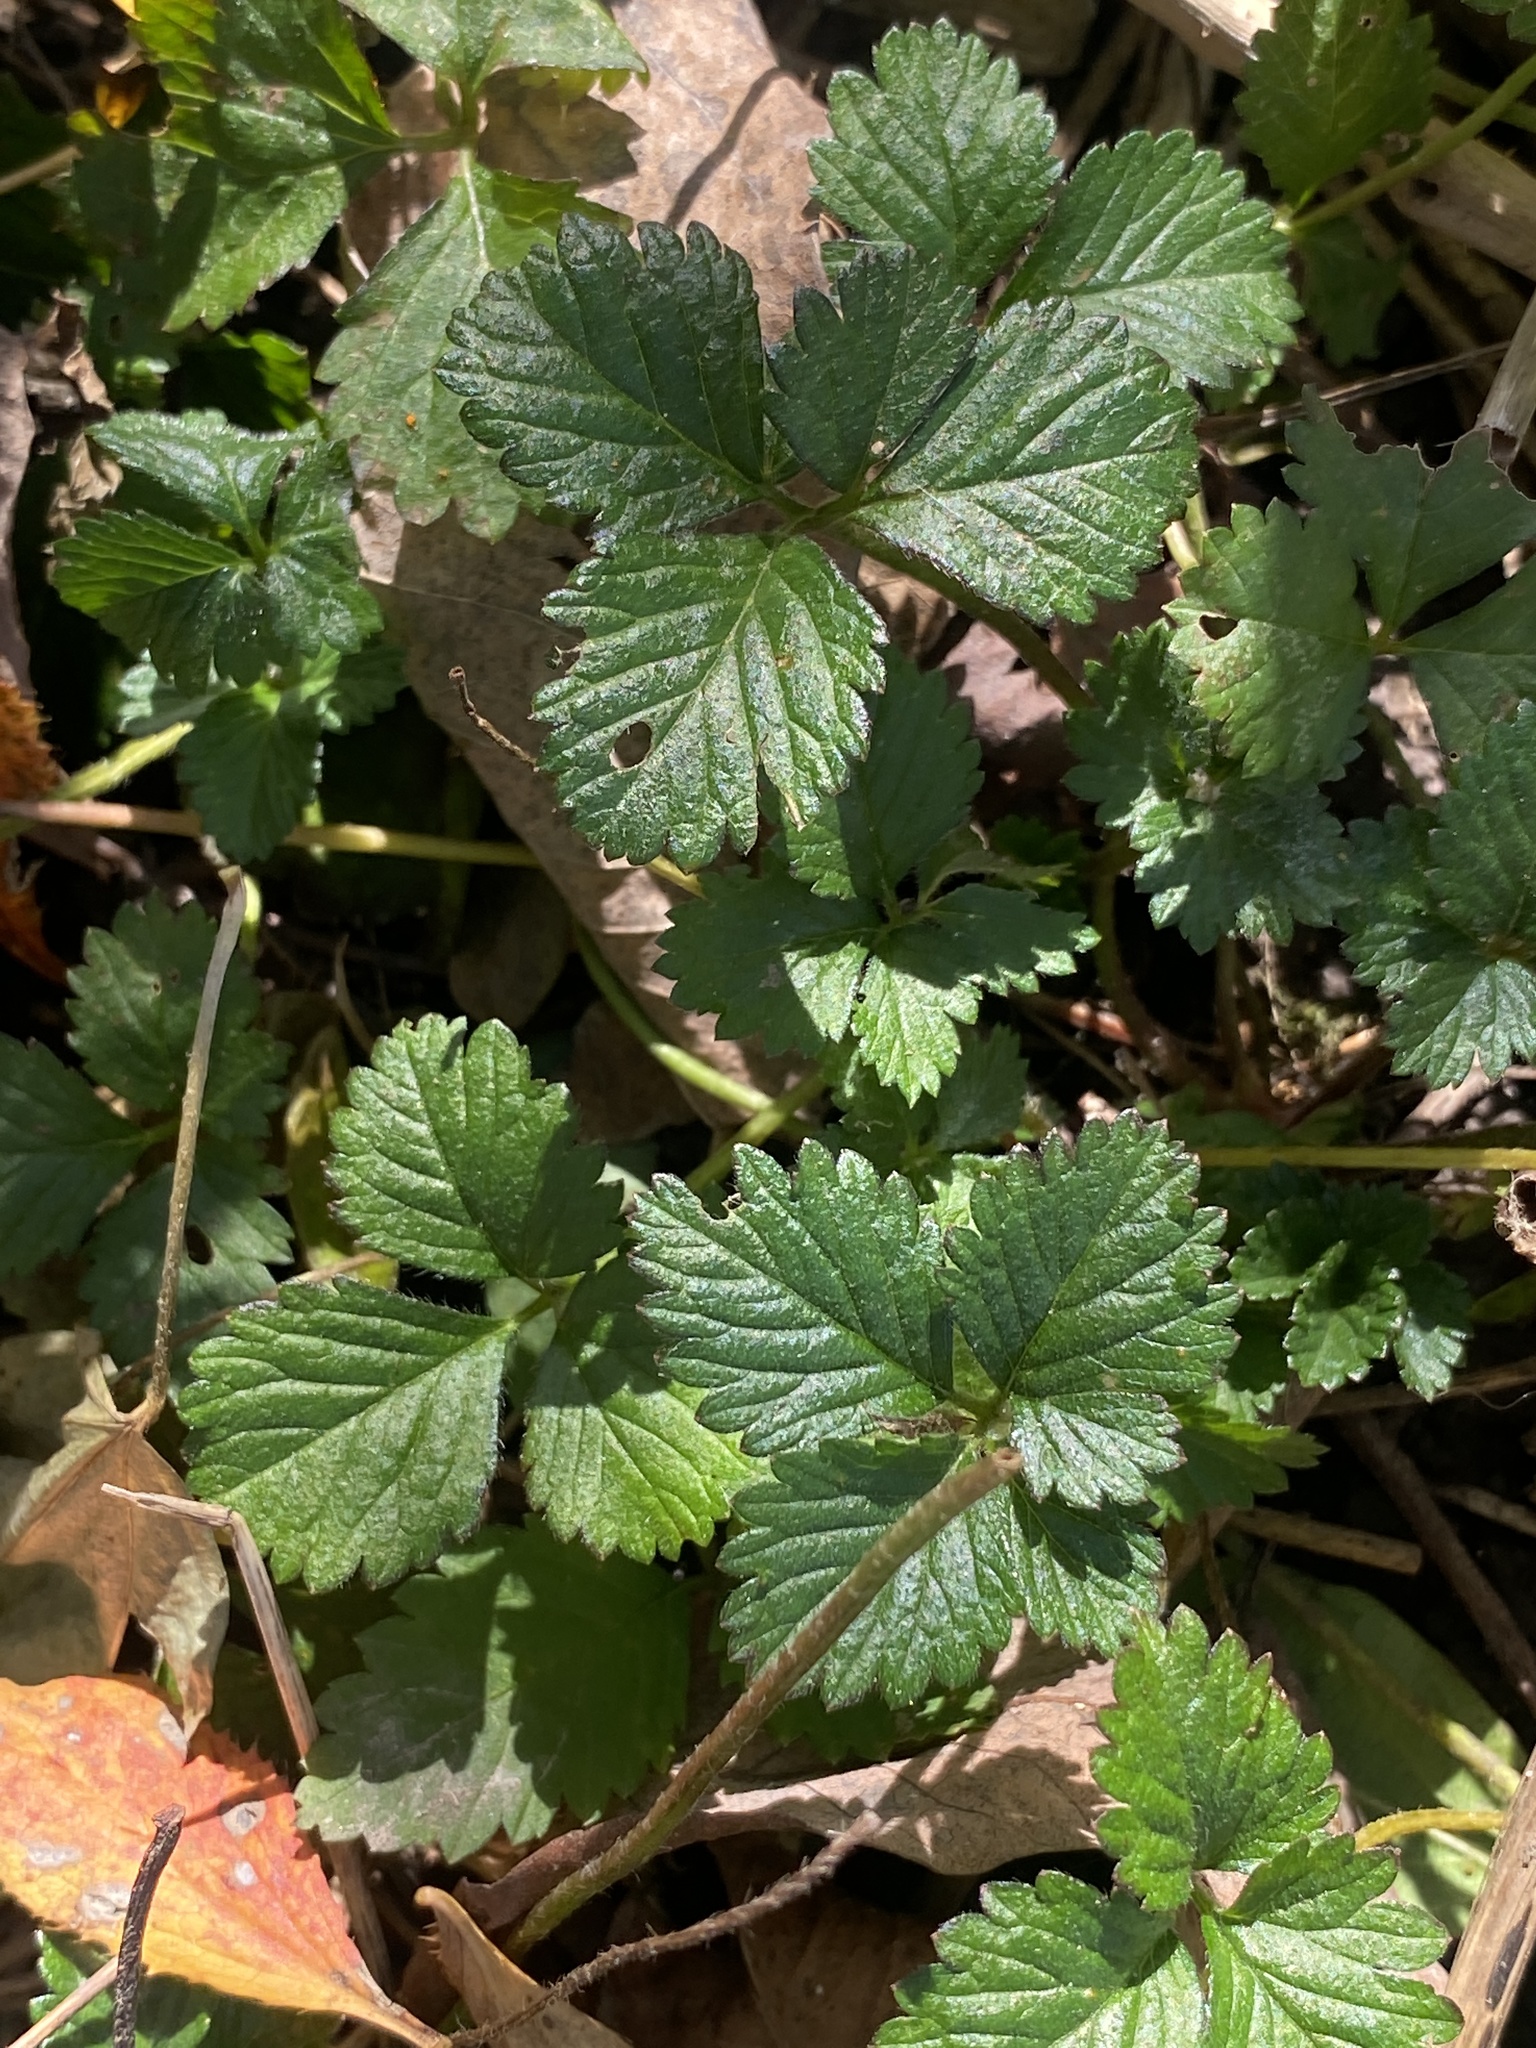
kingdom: Plantae
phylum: Tracheophyta
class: Magnoliopsida
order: Rosales
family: Rosaceae
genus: Potentilla
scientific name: Potentilla indica
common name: Yellow-flowered strawberry
